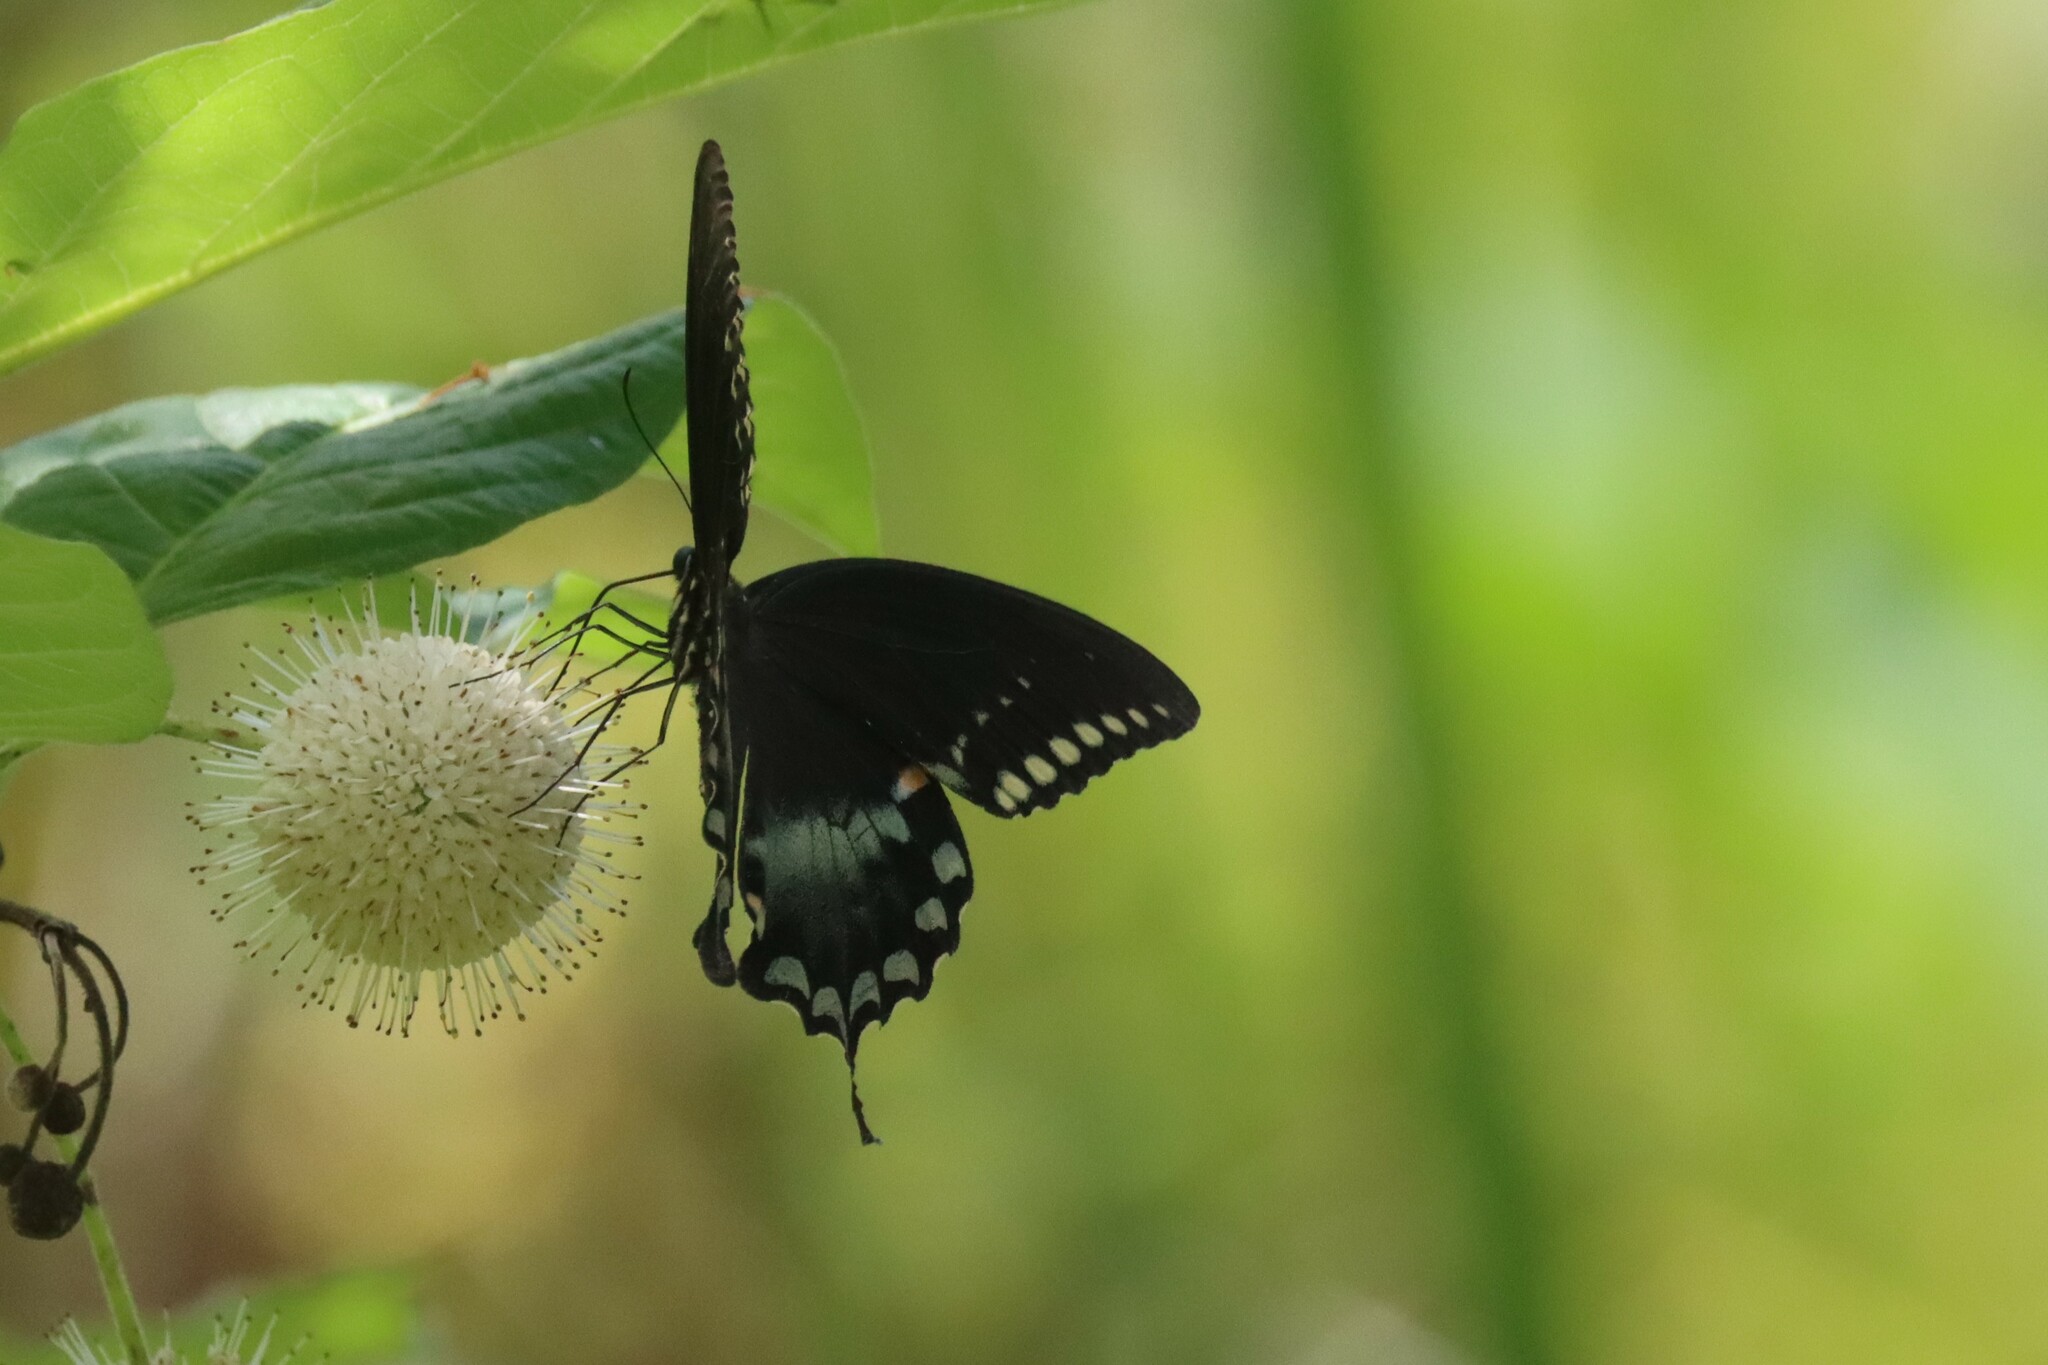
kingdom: Animalia
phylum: Arthropoda
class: Insecta
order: Lepidoptera
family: Papilionidae
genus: Papilio
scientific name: Papilio troilus
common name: Spicebush swallowtail
